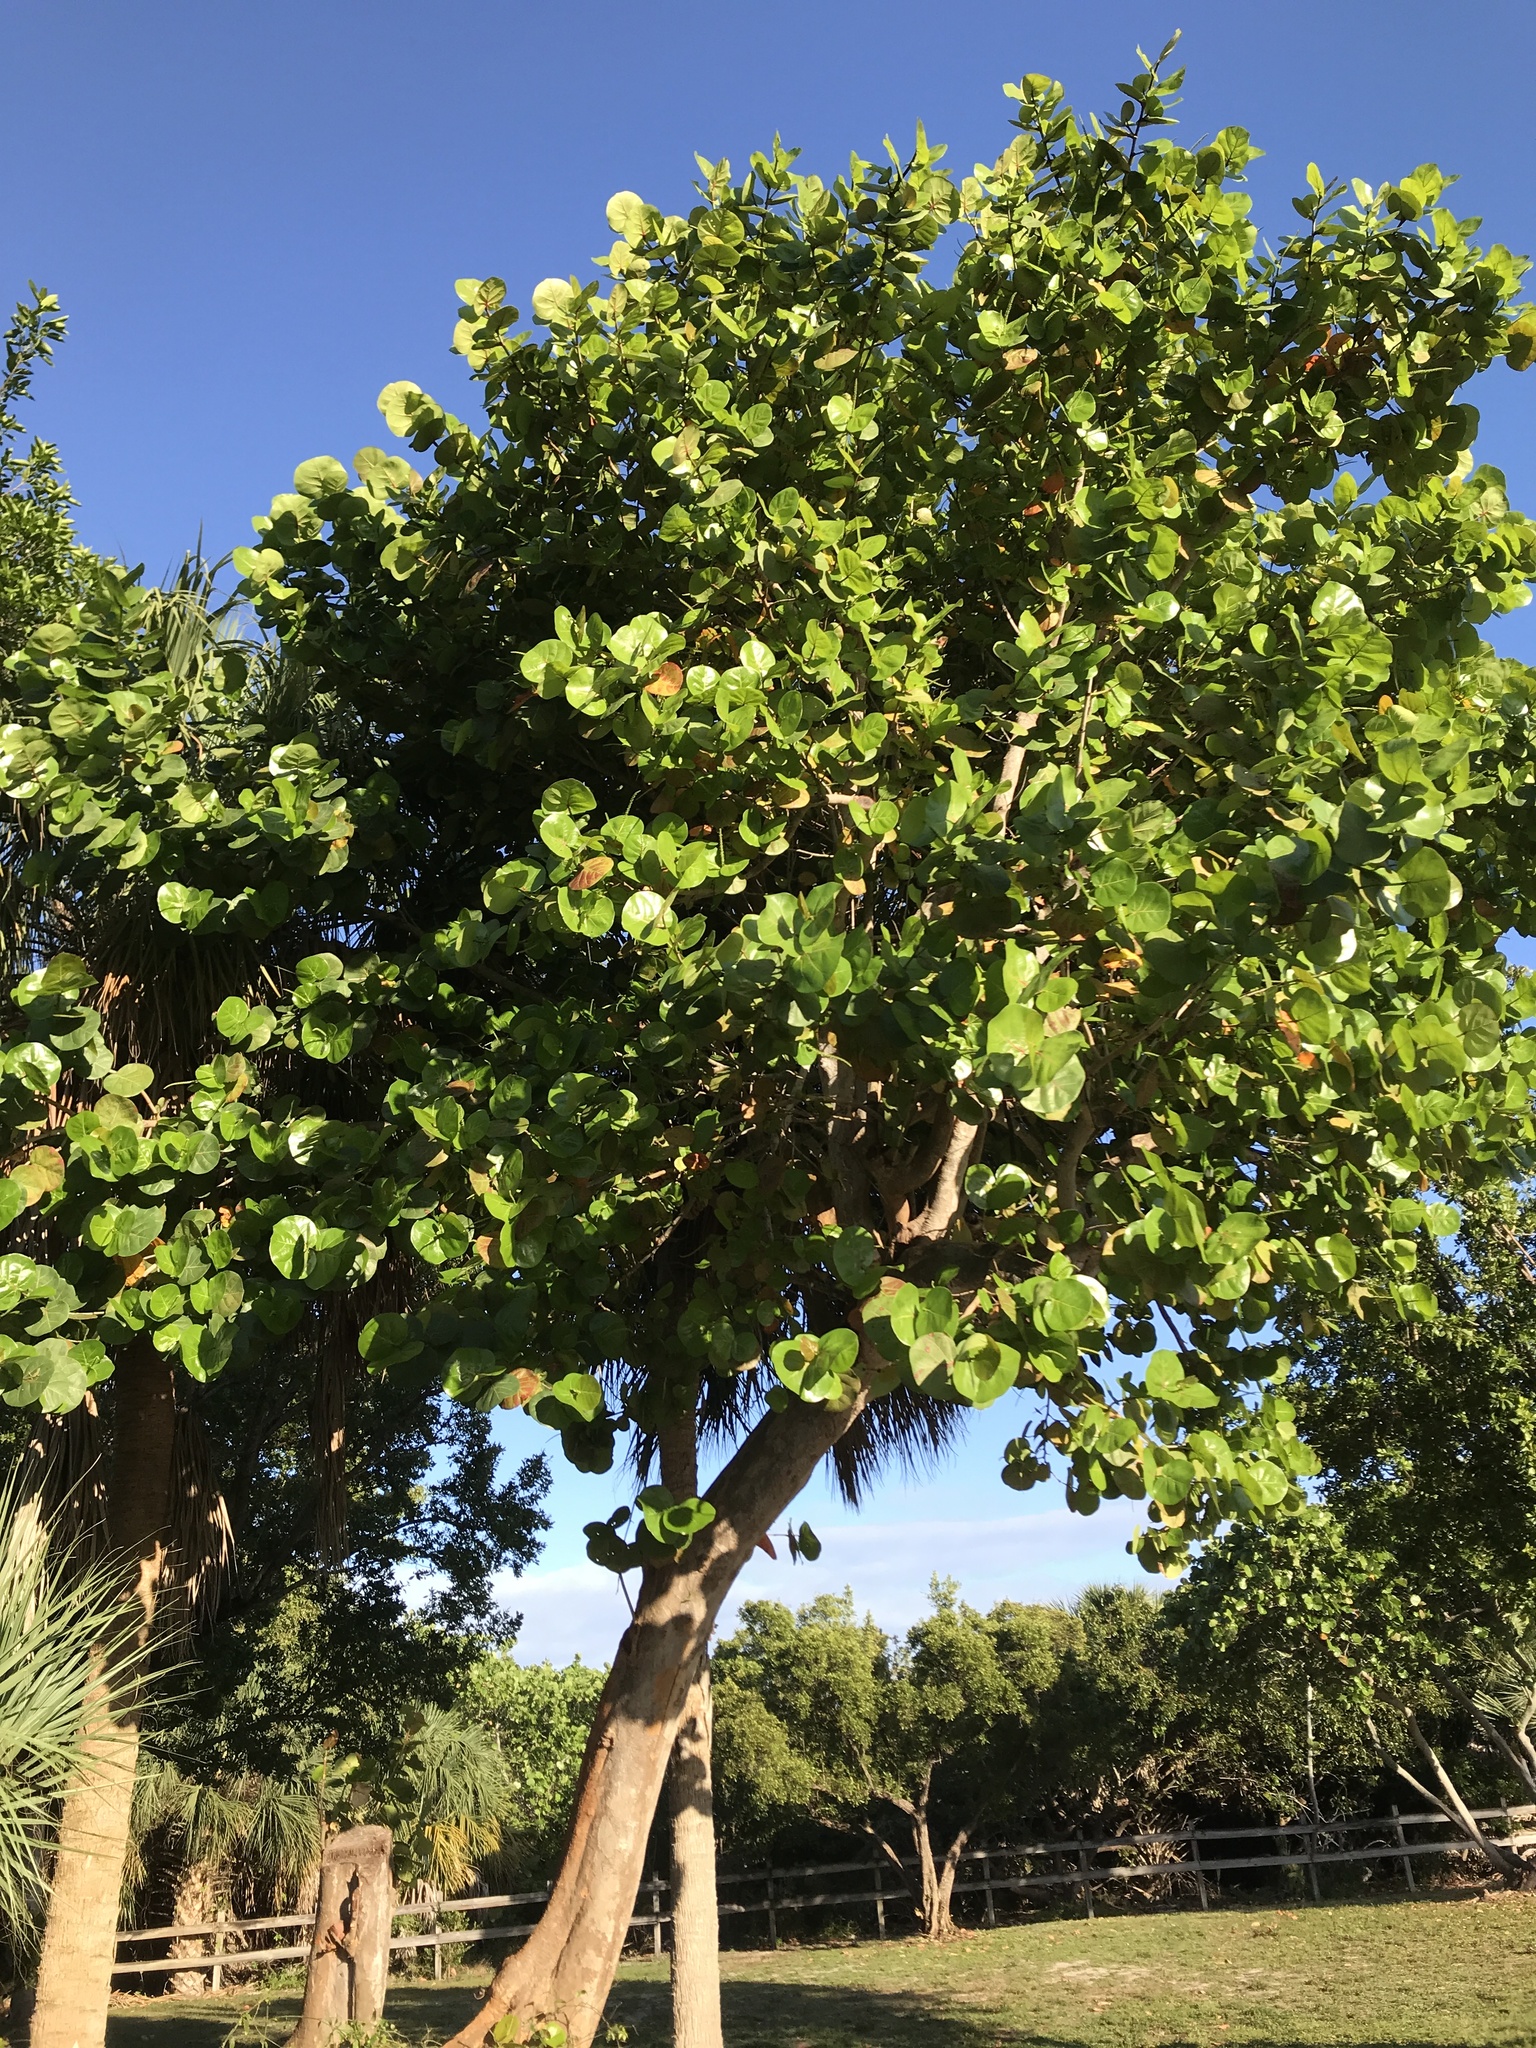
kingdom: Plantae
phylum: Tracheophyta
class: Magnoliopsida
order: Caryophyllales
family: Polygonaceae
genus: Coccoloba
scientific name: Coccoloba uvifera
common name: Seagrape
